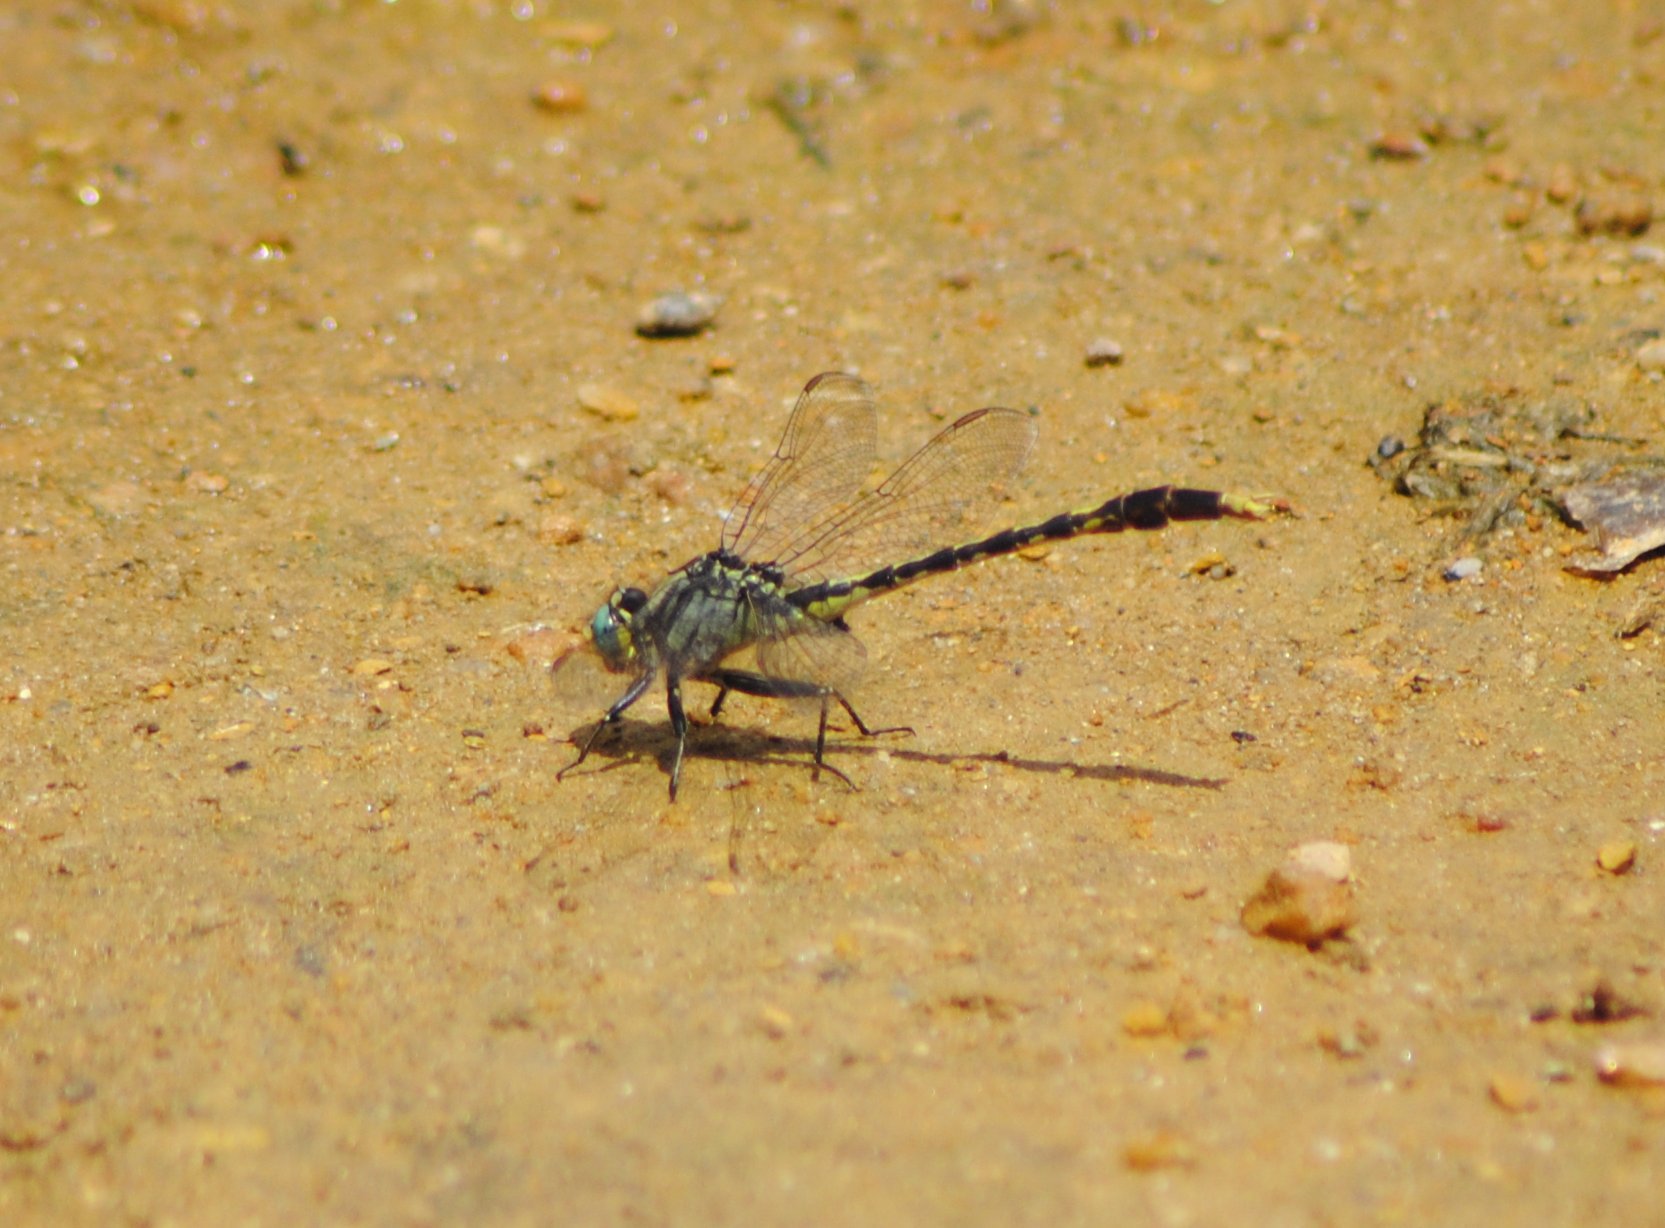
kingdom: Animalia
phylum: Arthropoda
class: Insecta
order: Odonata
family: Gomphidae
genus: Arigomphus
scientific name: Arigomphus villosipes
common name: Unicorn clubtail
